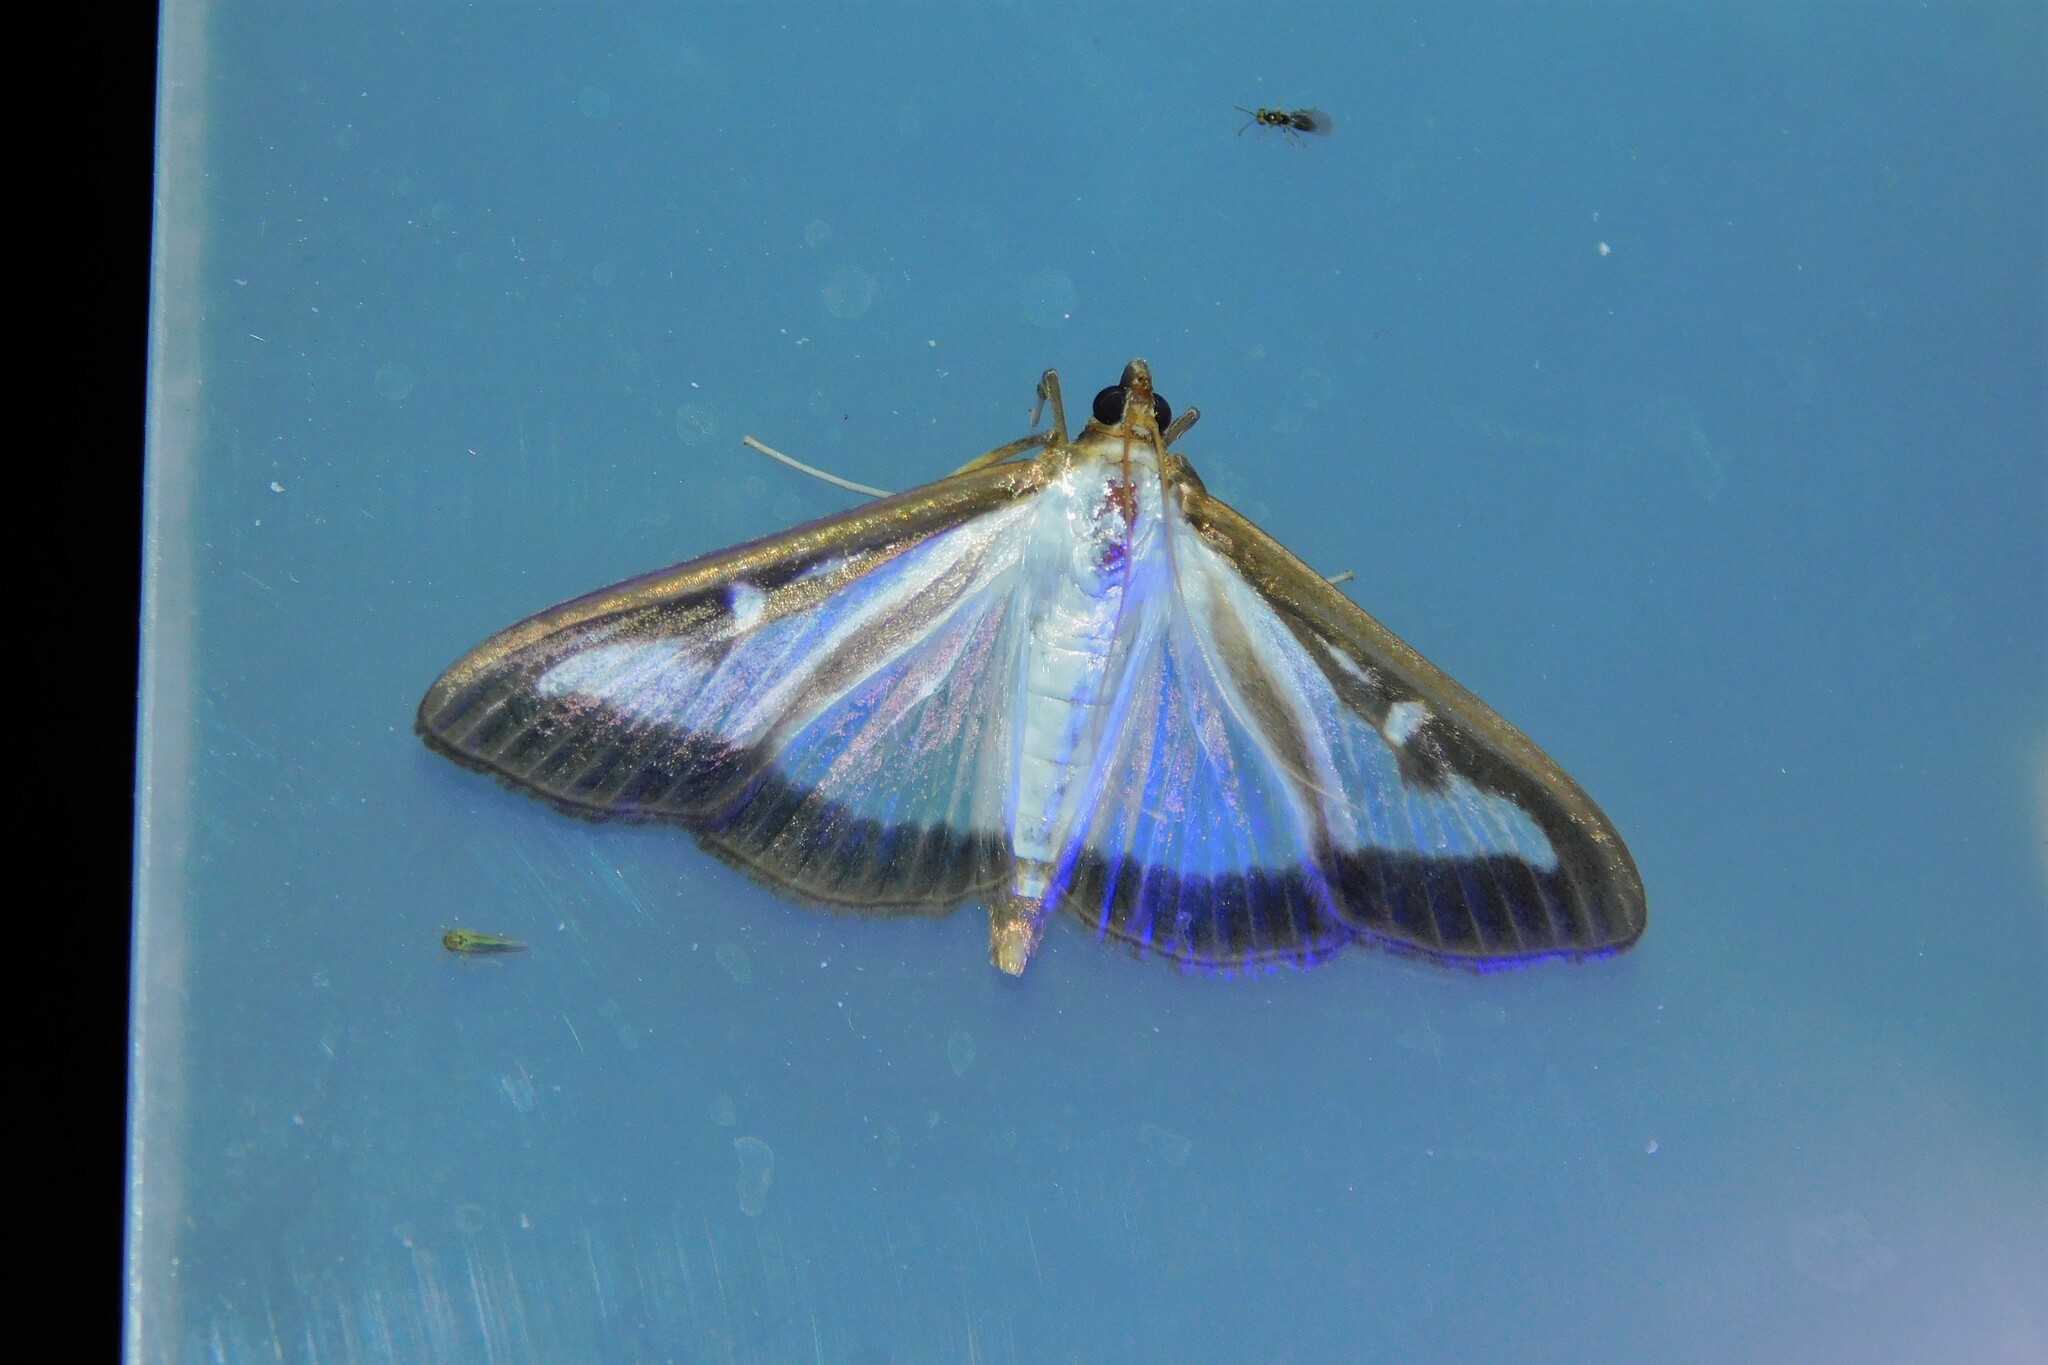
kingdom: Animalia
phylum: Arthropoda
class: Insecta
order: Lepidoptera
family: Crambidae
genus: Cydalima
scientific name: Cydalima perspectalis
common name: Box tree moth
